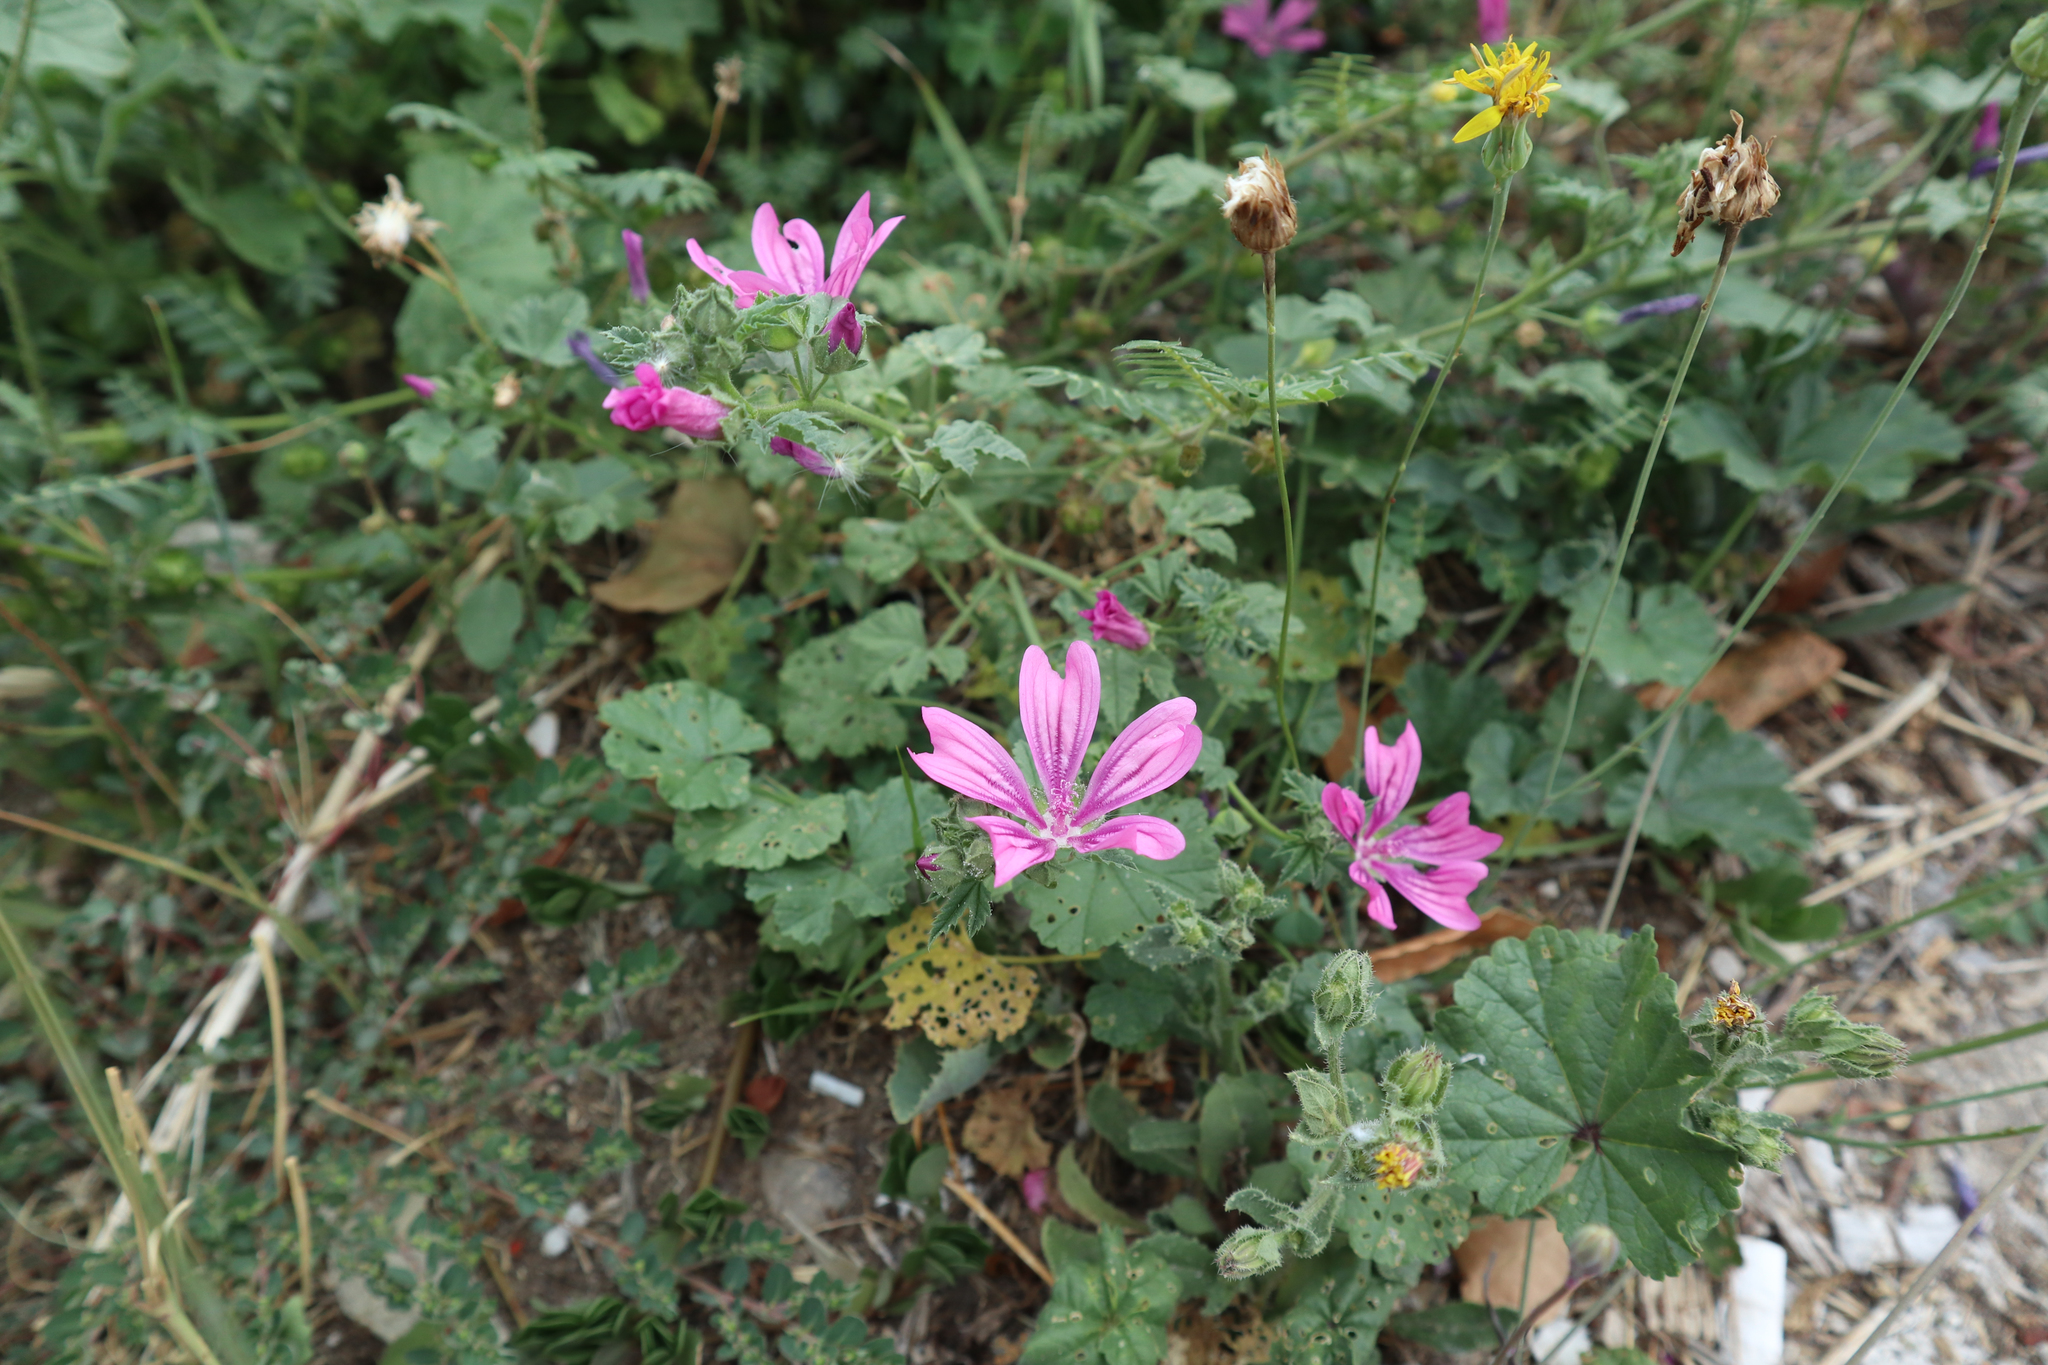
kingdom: Plantae
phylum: Tracheophyta
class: Magnoliopsida
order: Malvales
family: Malvaceae
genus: Malva
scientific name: Malva sylvestris
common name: Common mallow
